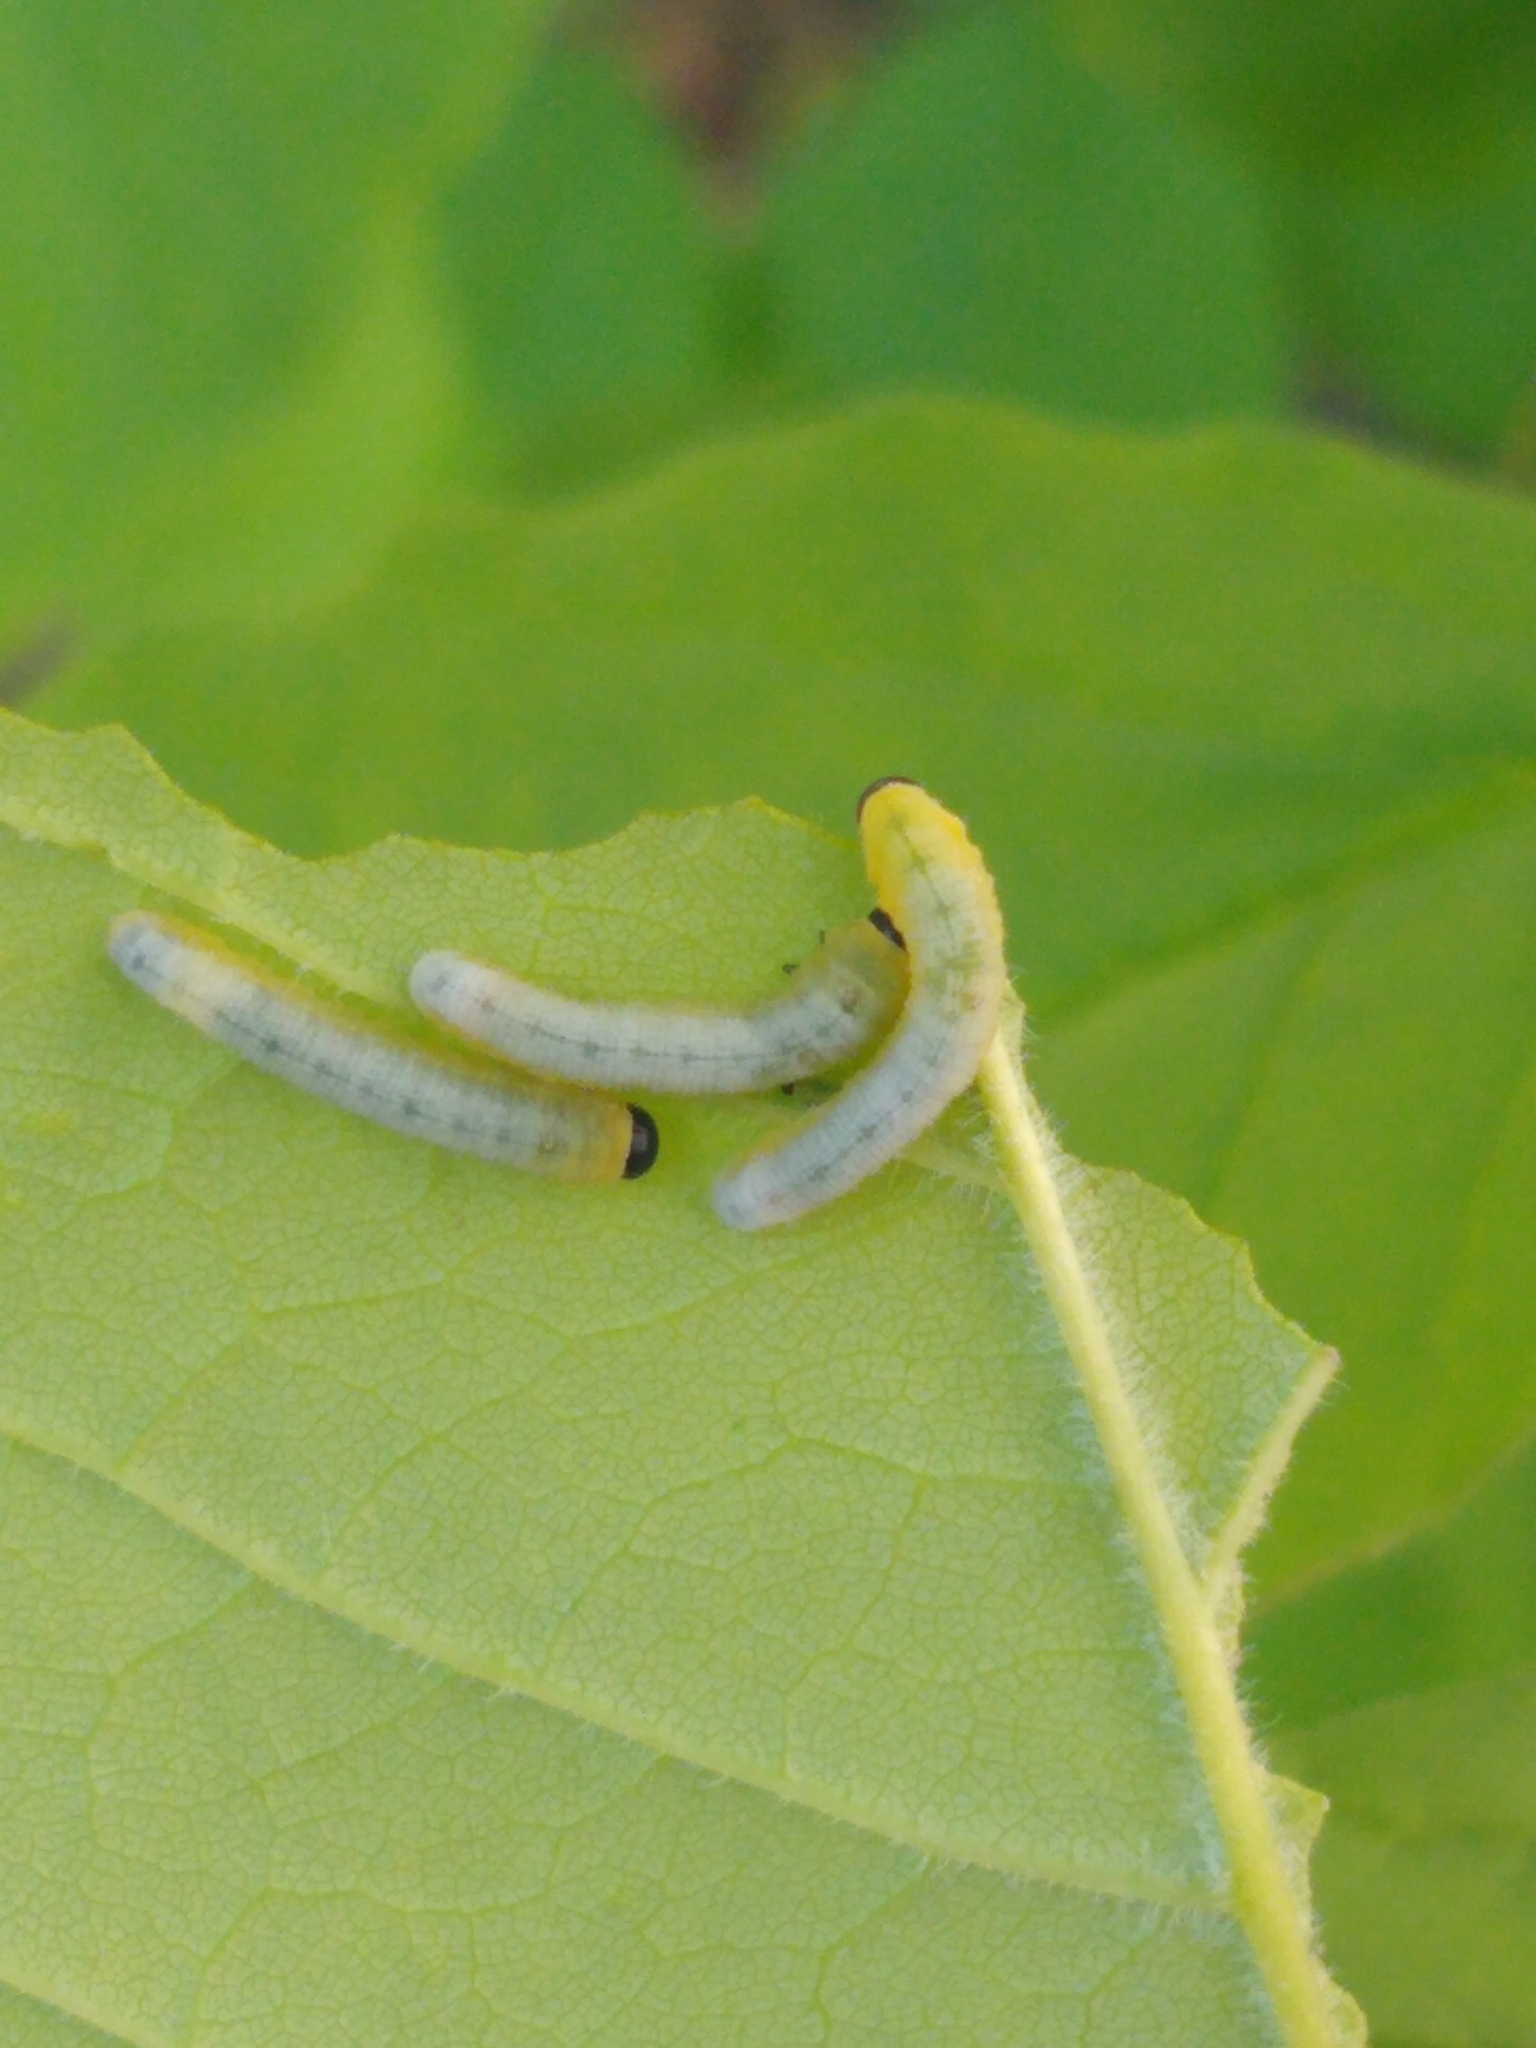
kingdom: Animalia
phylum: Arthropoda
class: Insecta
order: Hymenoptera
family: Tenthredinidae
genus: Tethida
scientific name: Tethida barda
